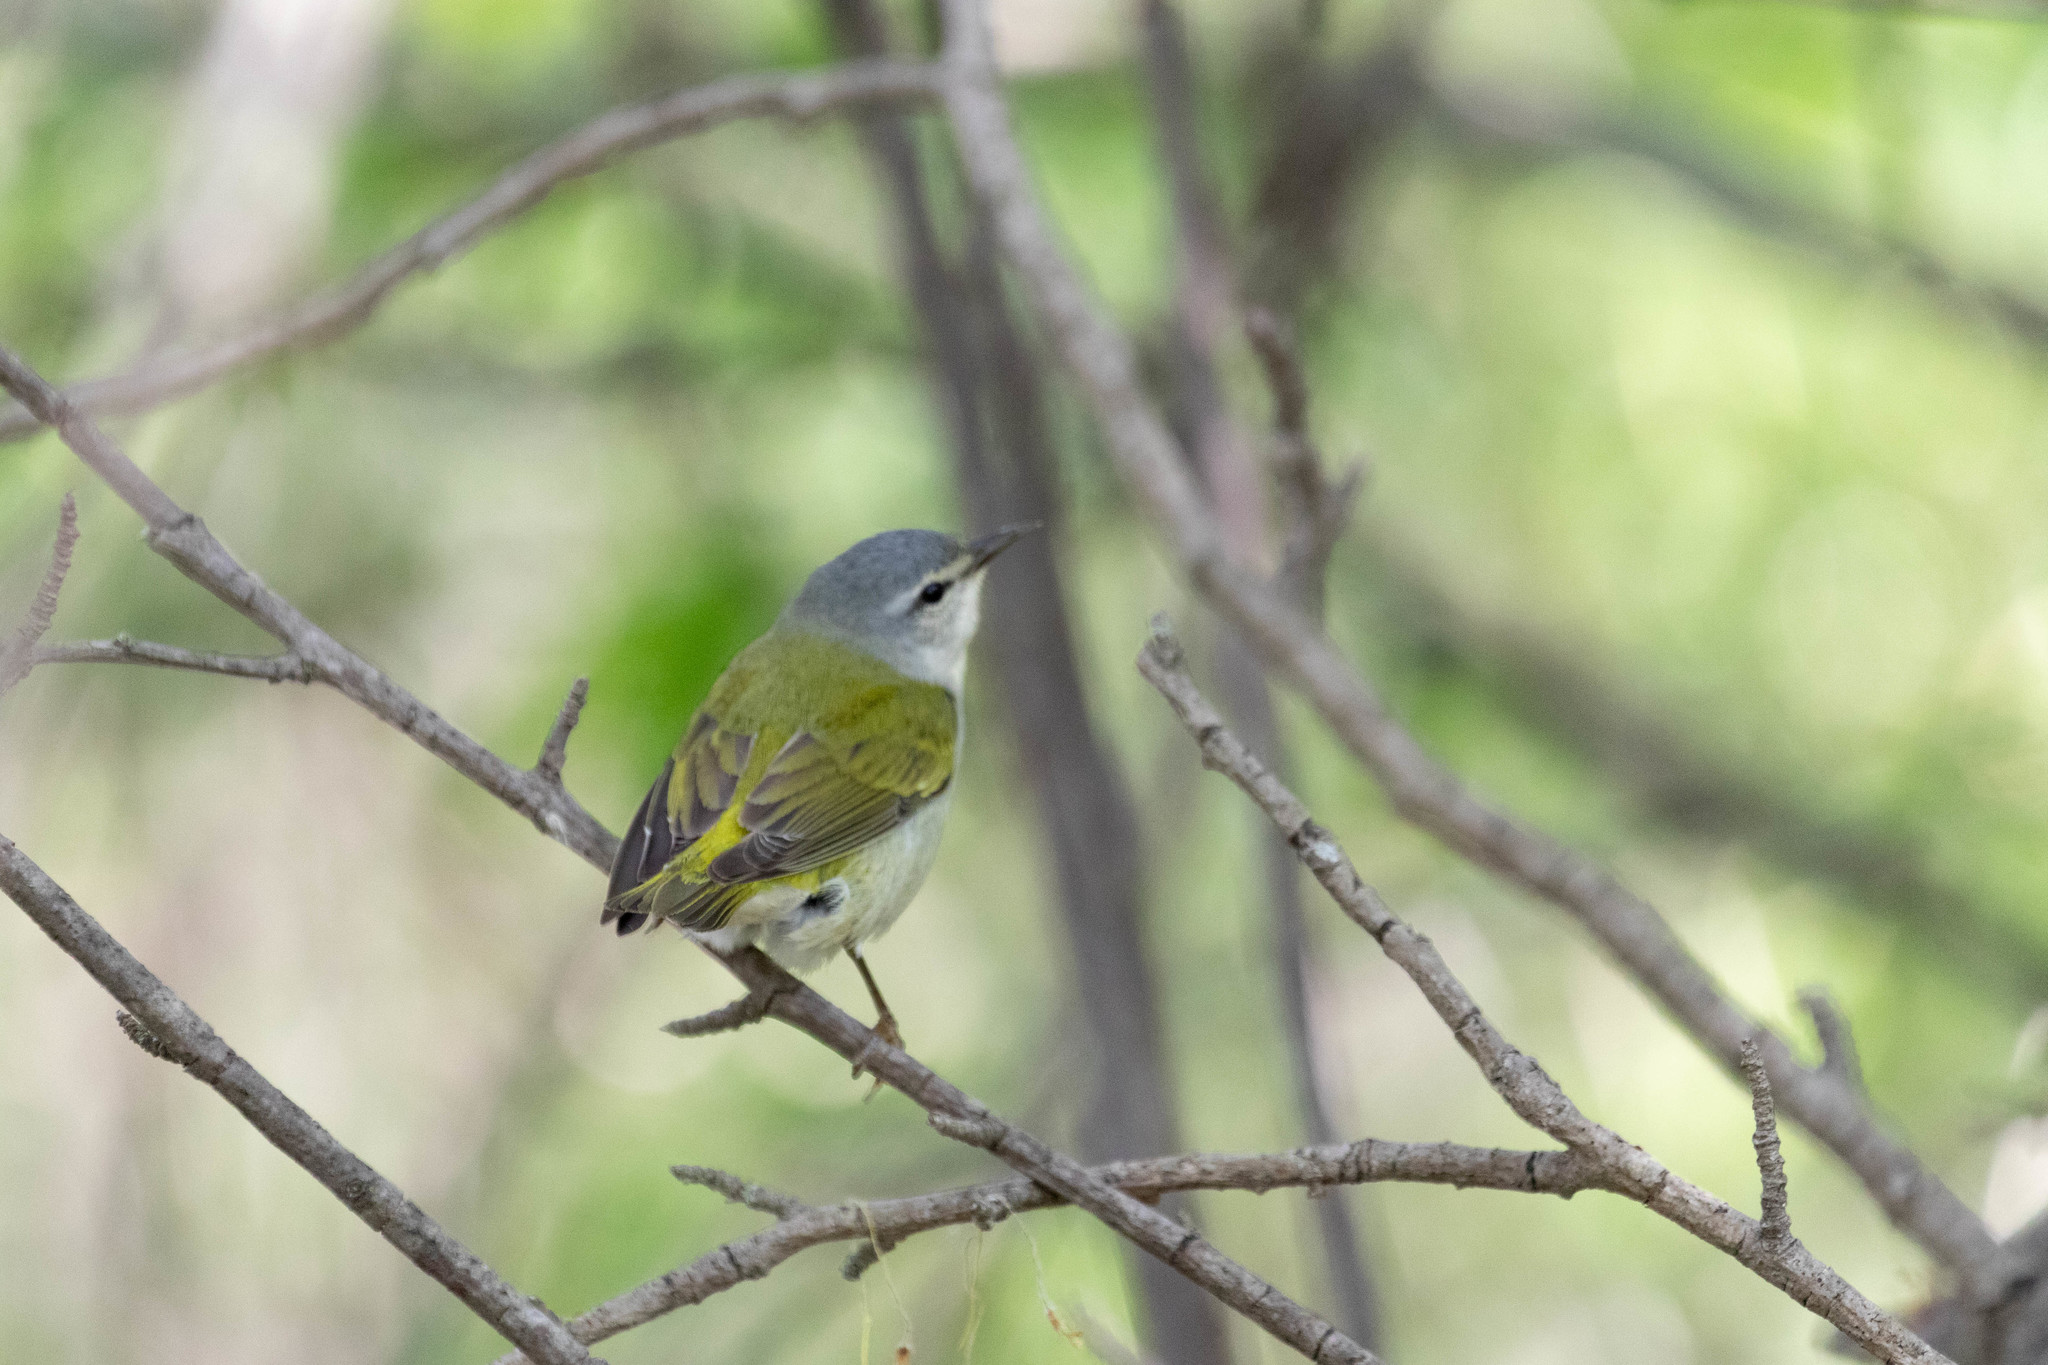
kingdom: Animalia
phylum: Chordata
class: Aves
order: Passeriformes
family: Parulidae
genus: Leiothlypis
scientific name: Leiothlypis peregrina
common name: Tennessee warbler
